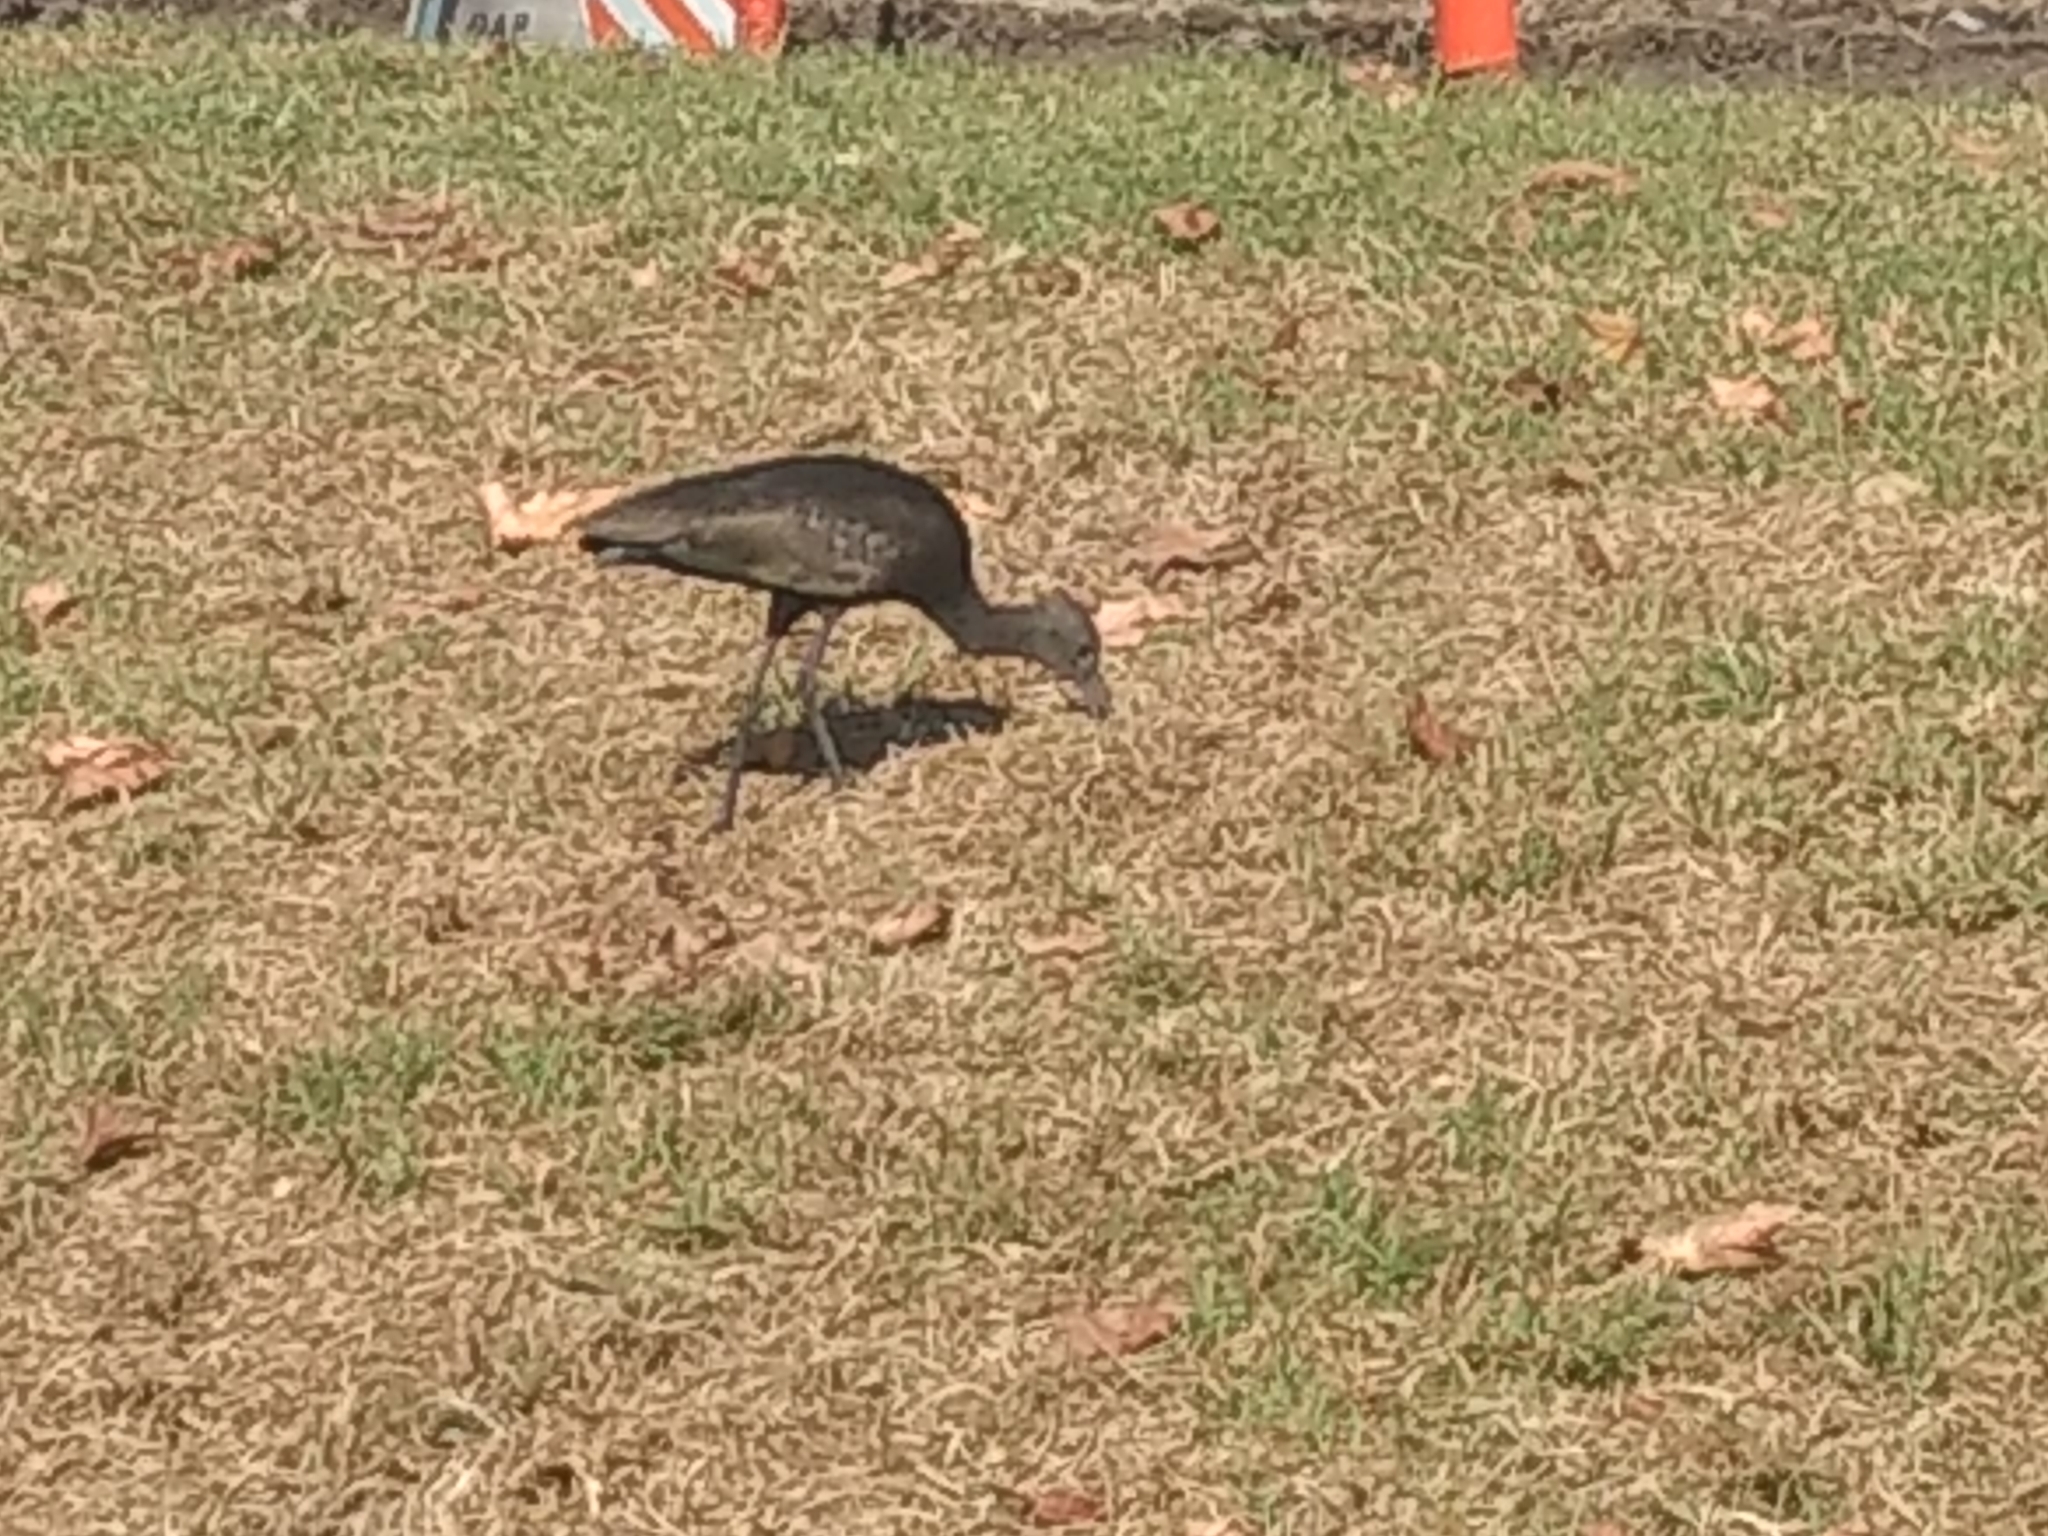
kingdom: Animalia
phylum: Chordata
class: Aves
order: Pelecaniformes
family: Threskiornithidae
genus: Plegadis
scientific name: Plegadis chihi
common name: White-faced ibis
